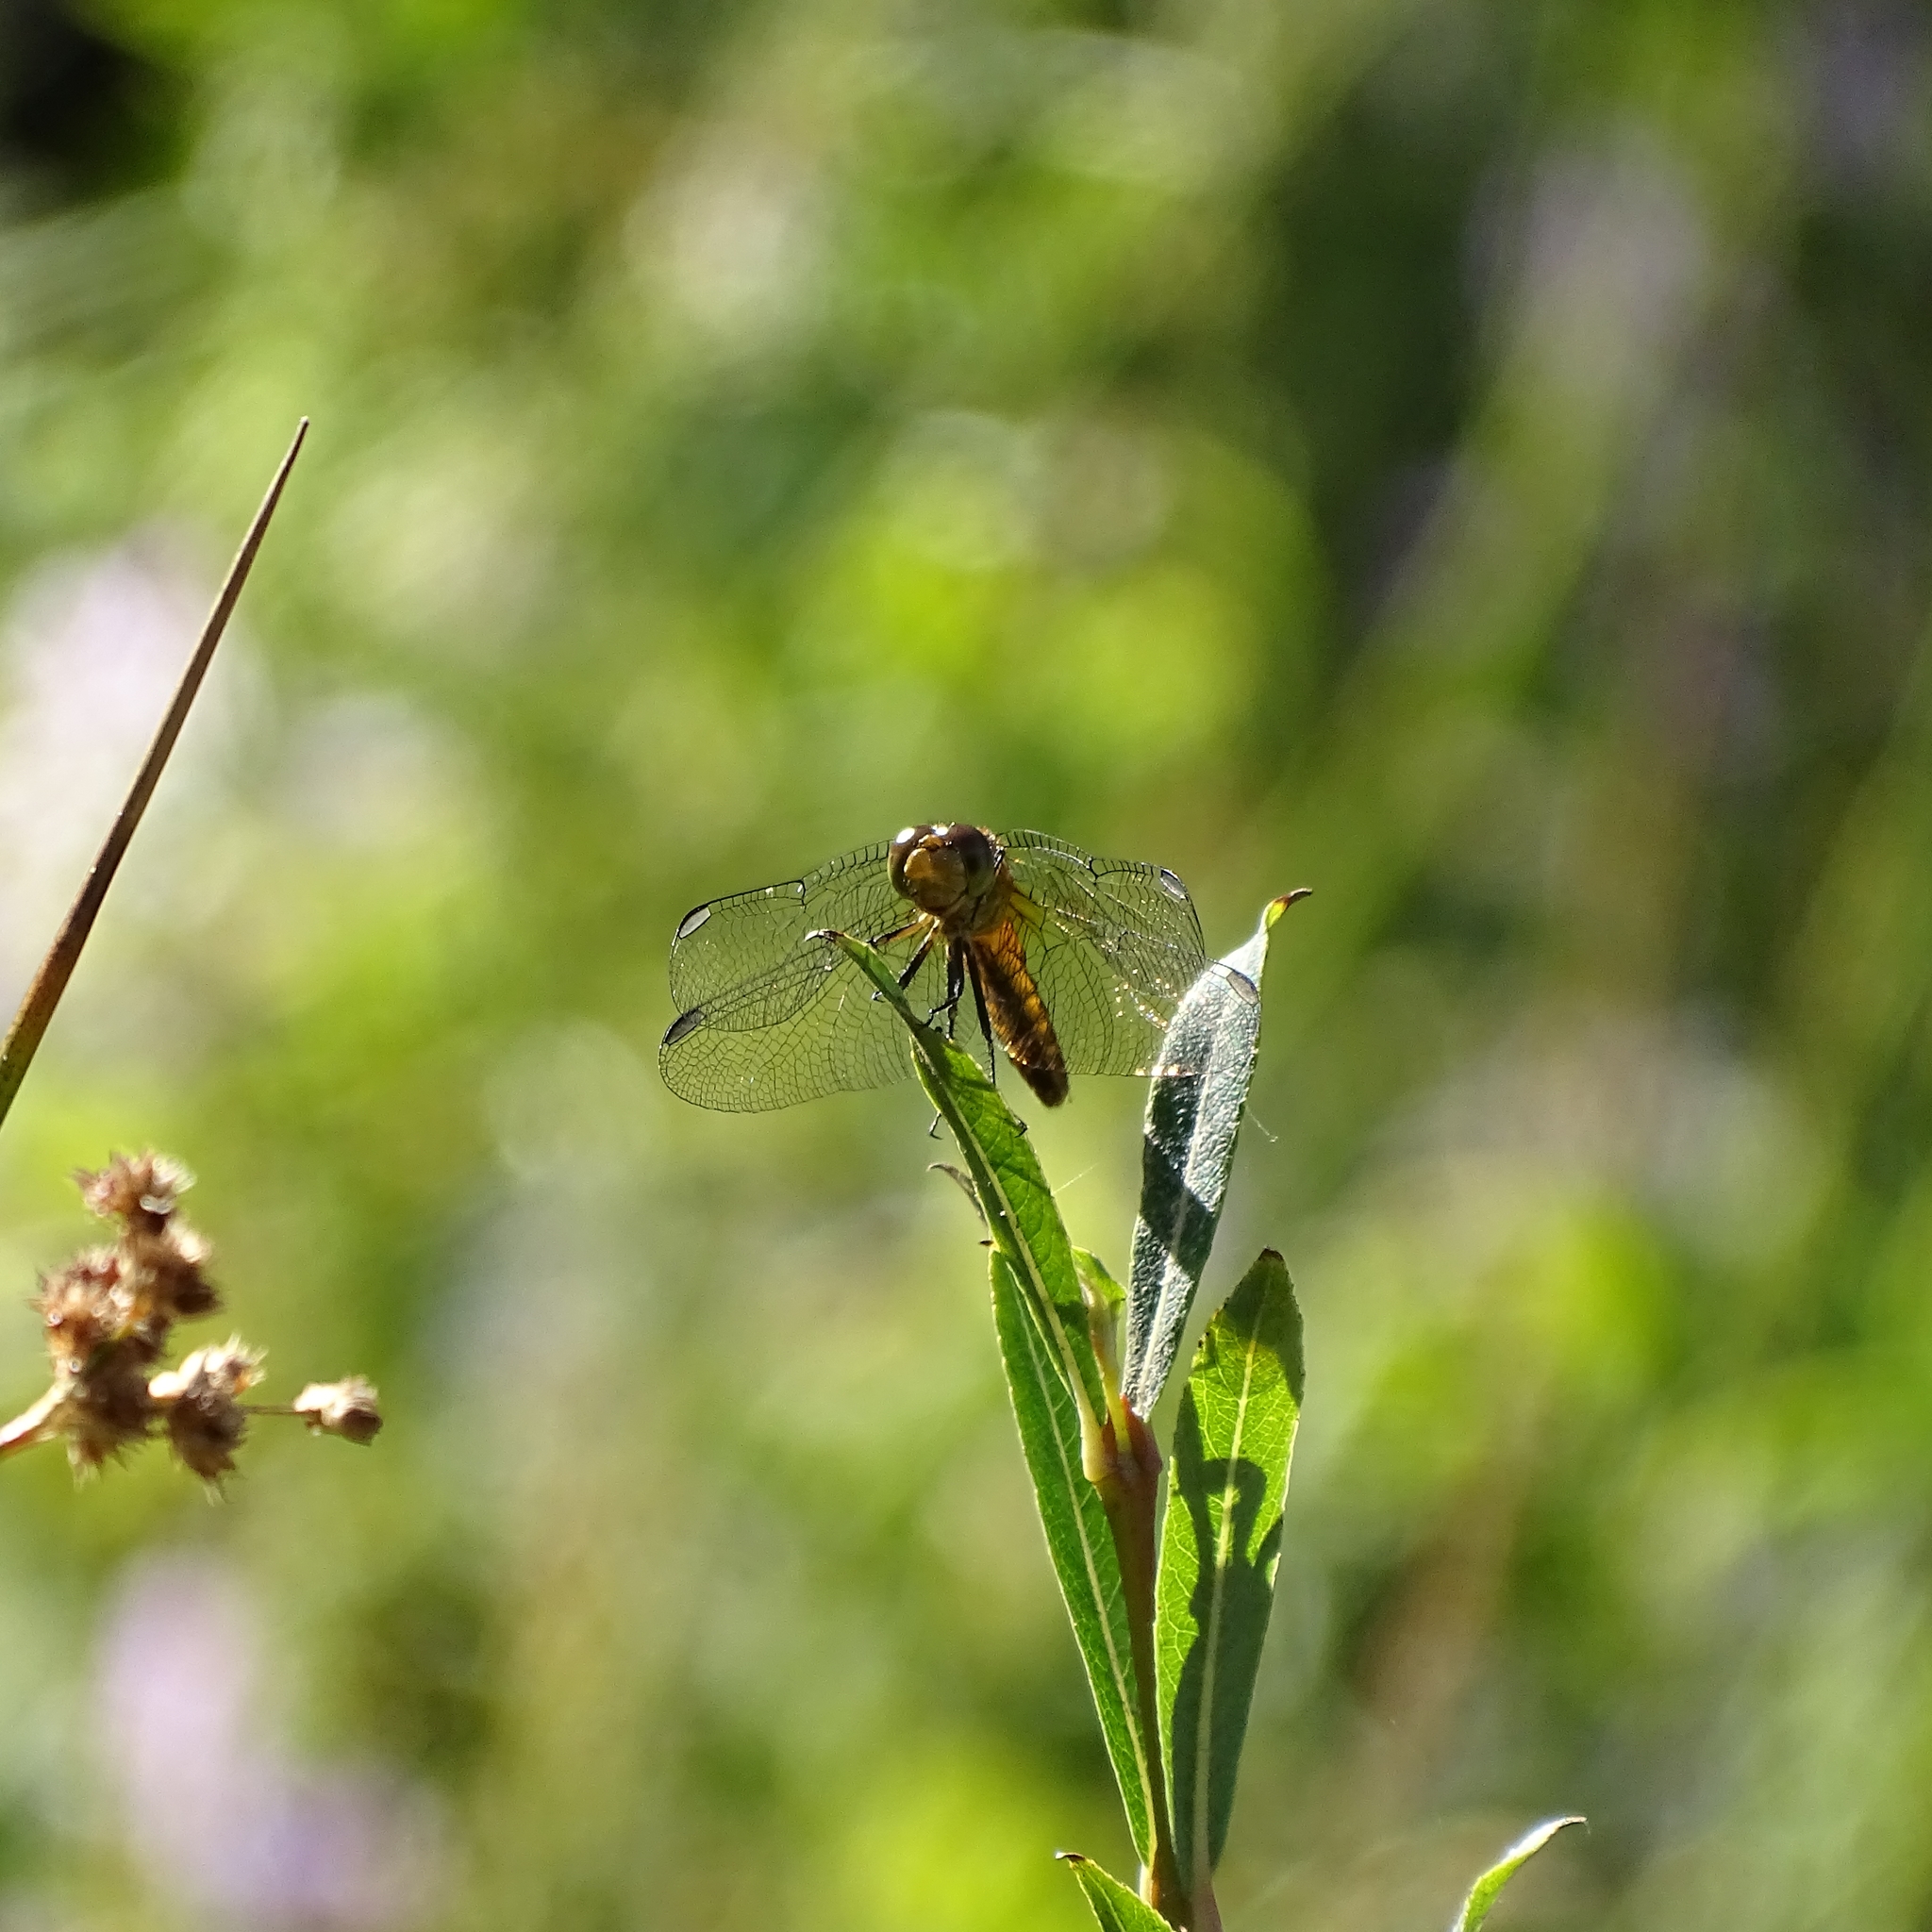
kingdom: Animalia
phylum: Arthropoda
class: Insecta
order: Odonata
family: Libellulidae
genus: Erythrodiplax
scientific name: Erythrodiplax connata
